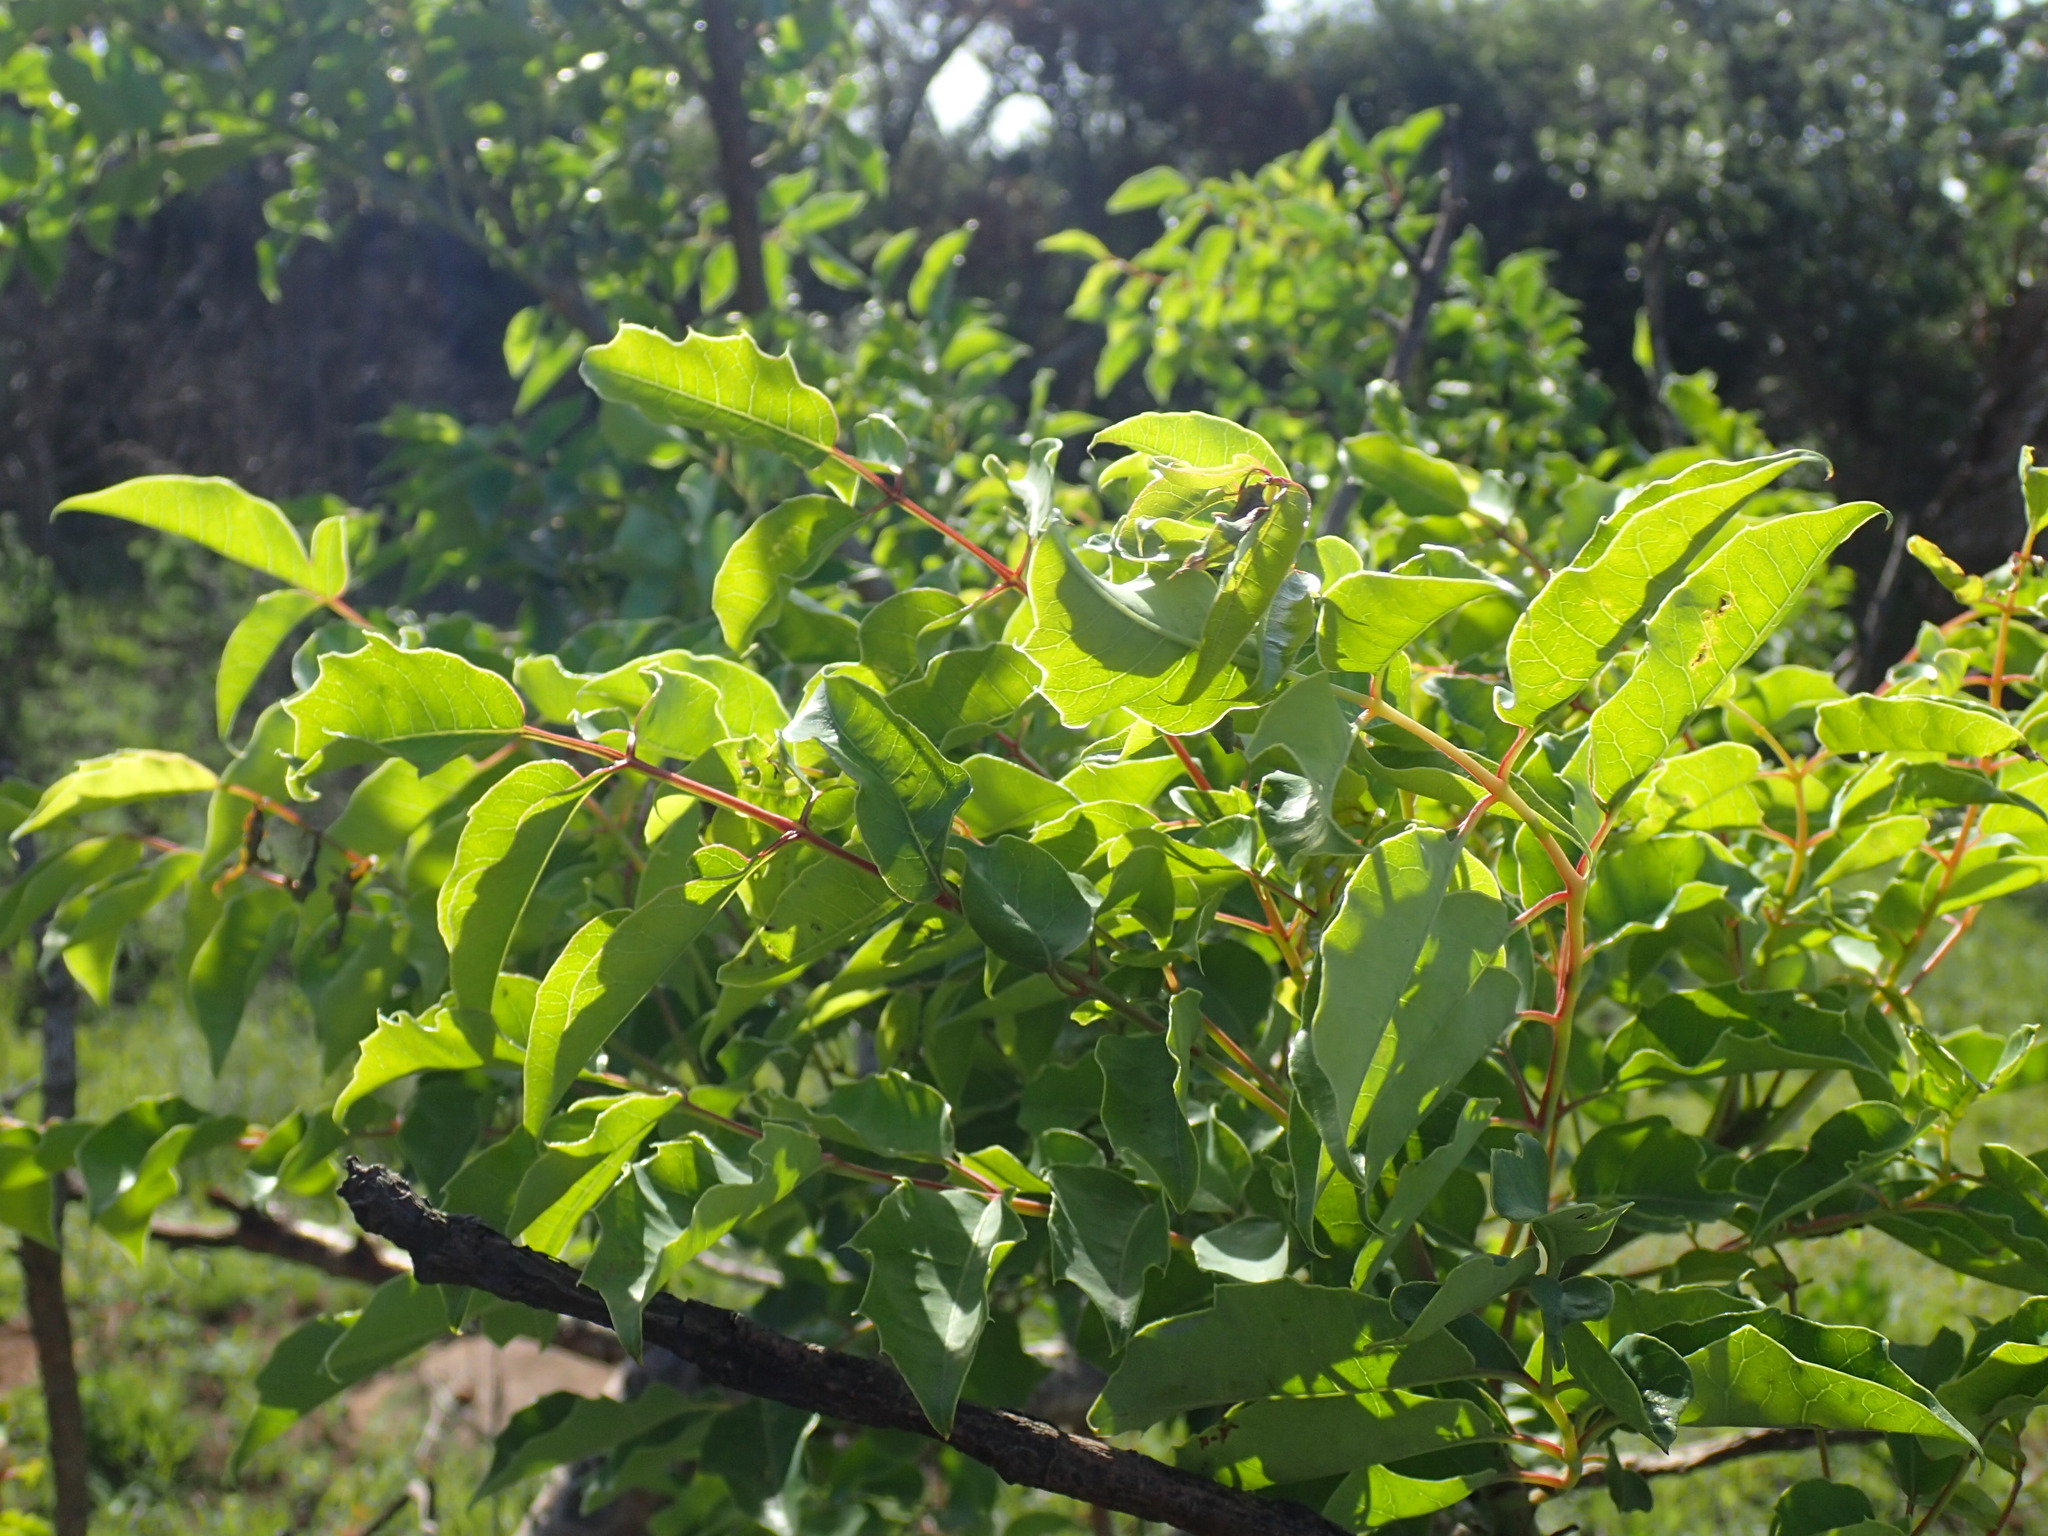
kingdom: Plantae
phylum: Tracheophyta
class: Magnoliopsida
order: Sapindales
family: Anacardiaceae
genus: Sclerocarya
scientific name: Sclerocarya birrea
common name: Marula
